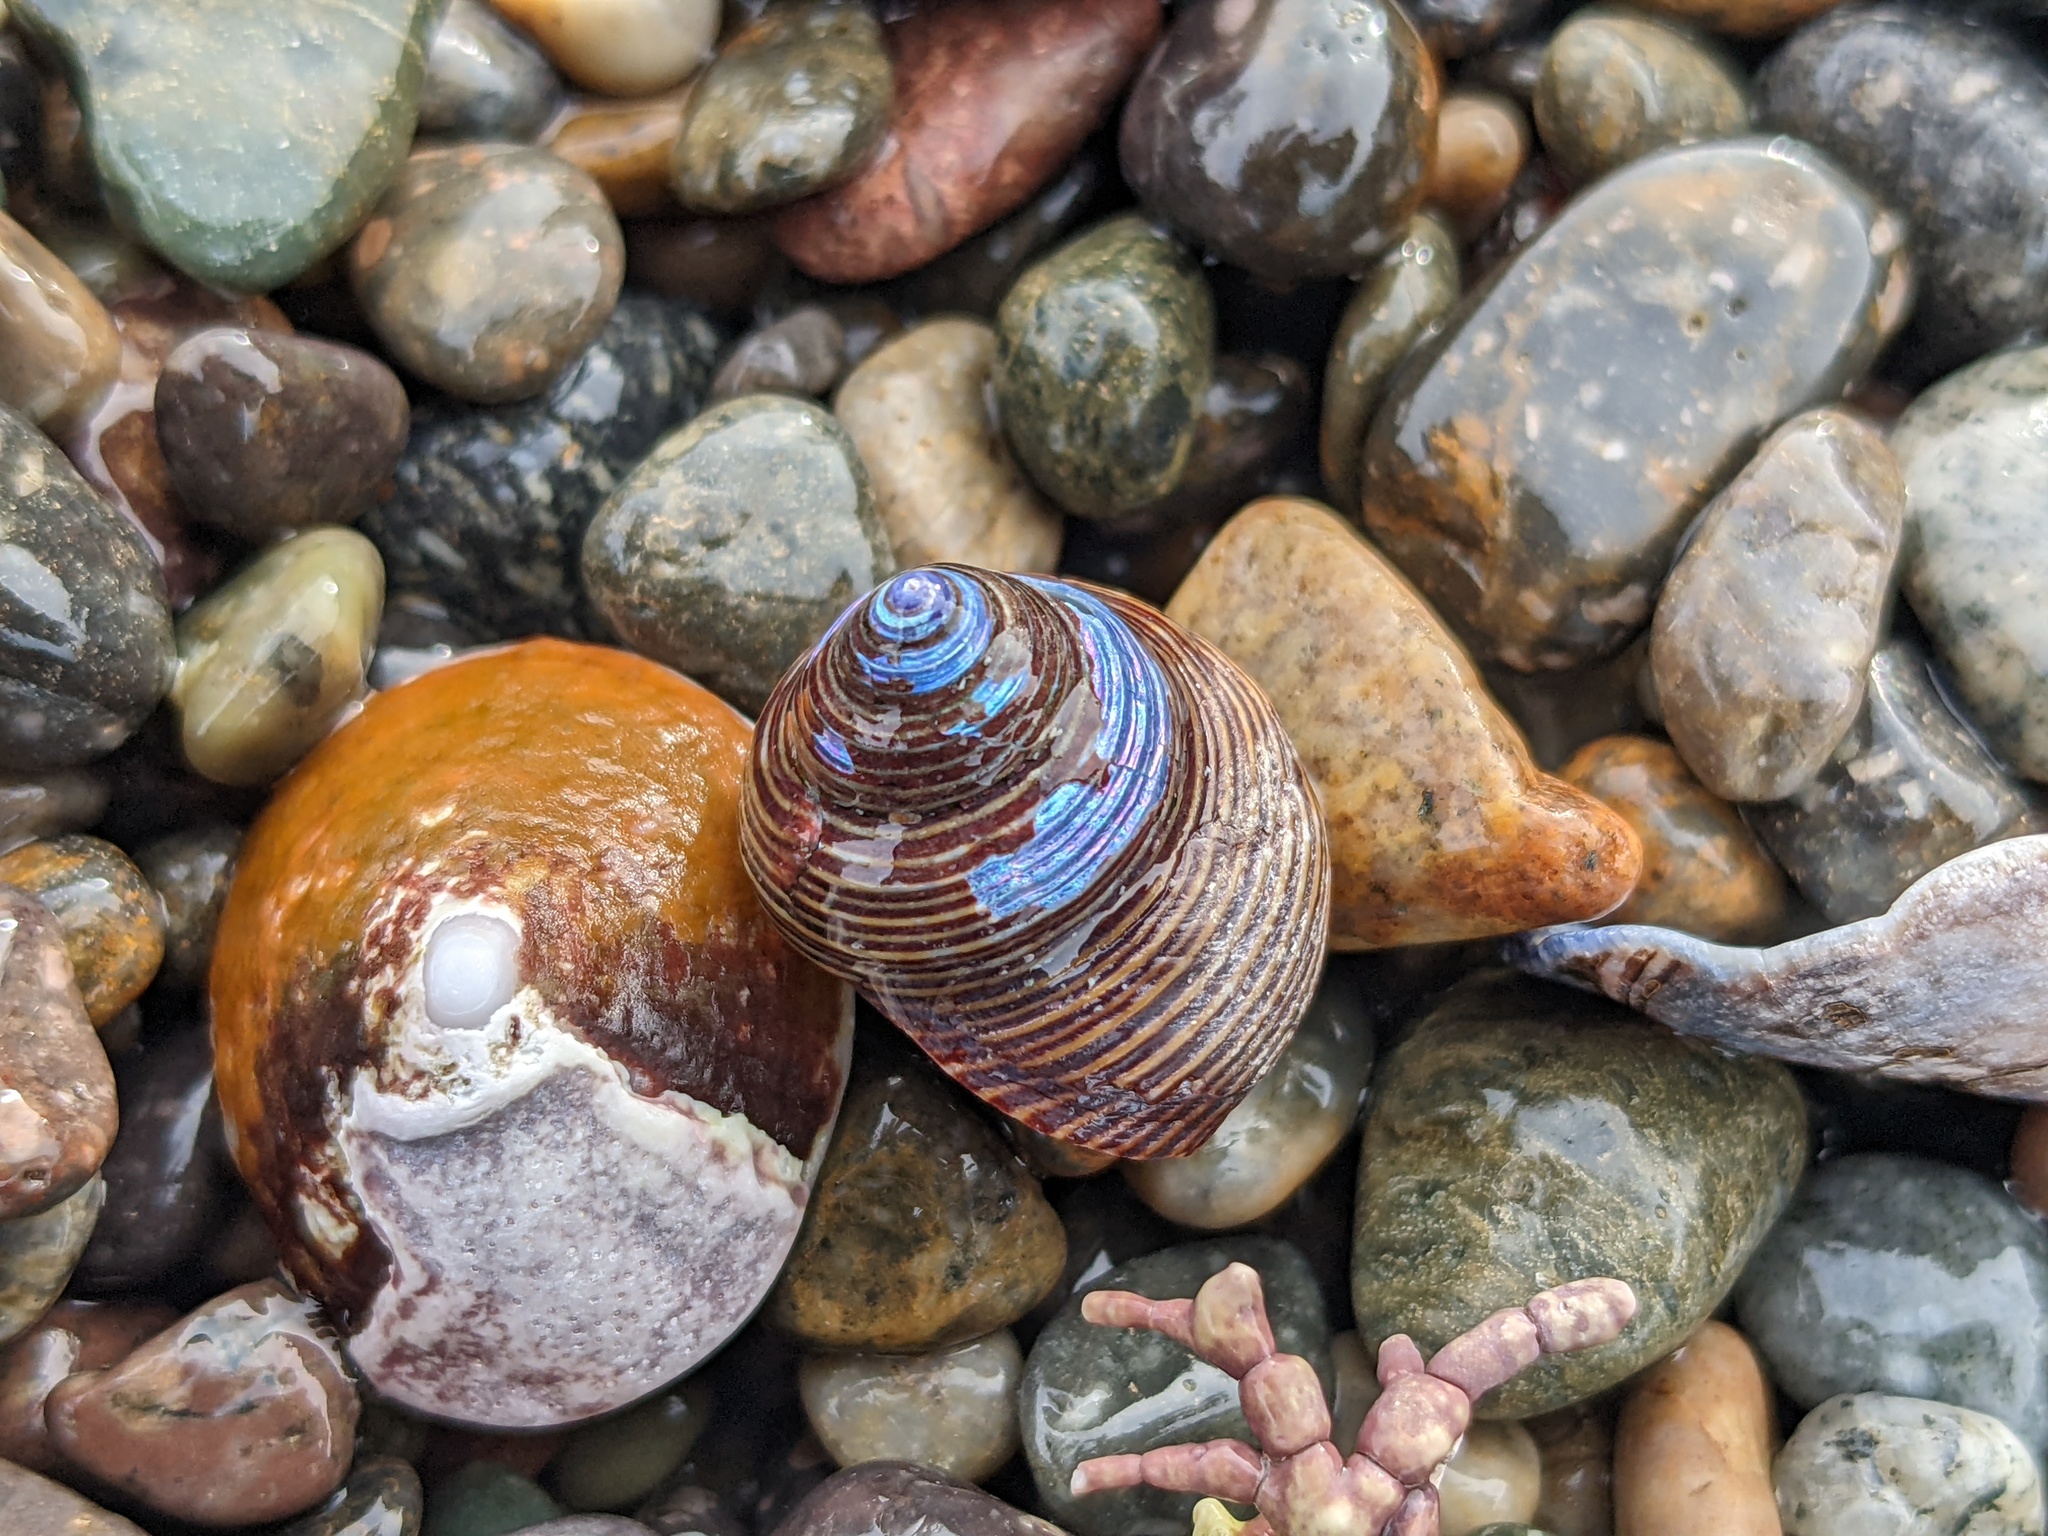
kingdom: Animalia
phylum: Mollusca
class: Gastropoda
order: Trochida
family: Calliostomatidae
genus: Calliostoma
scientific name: Calliostoma ligatum
